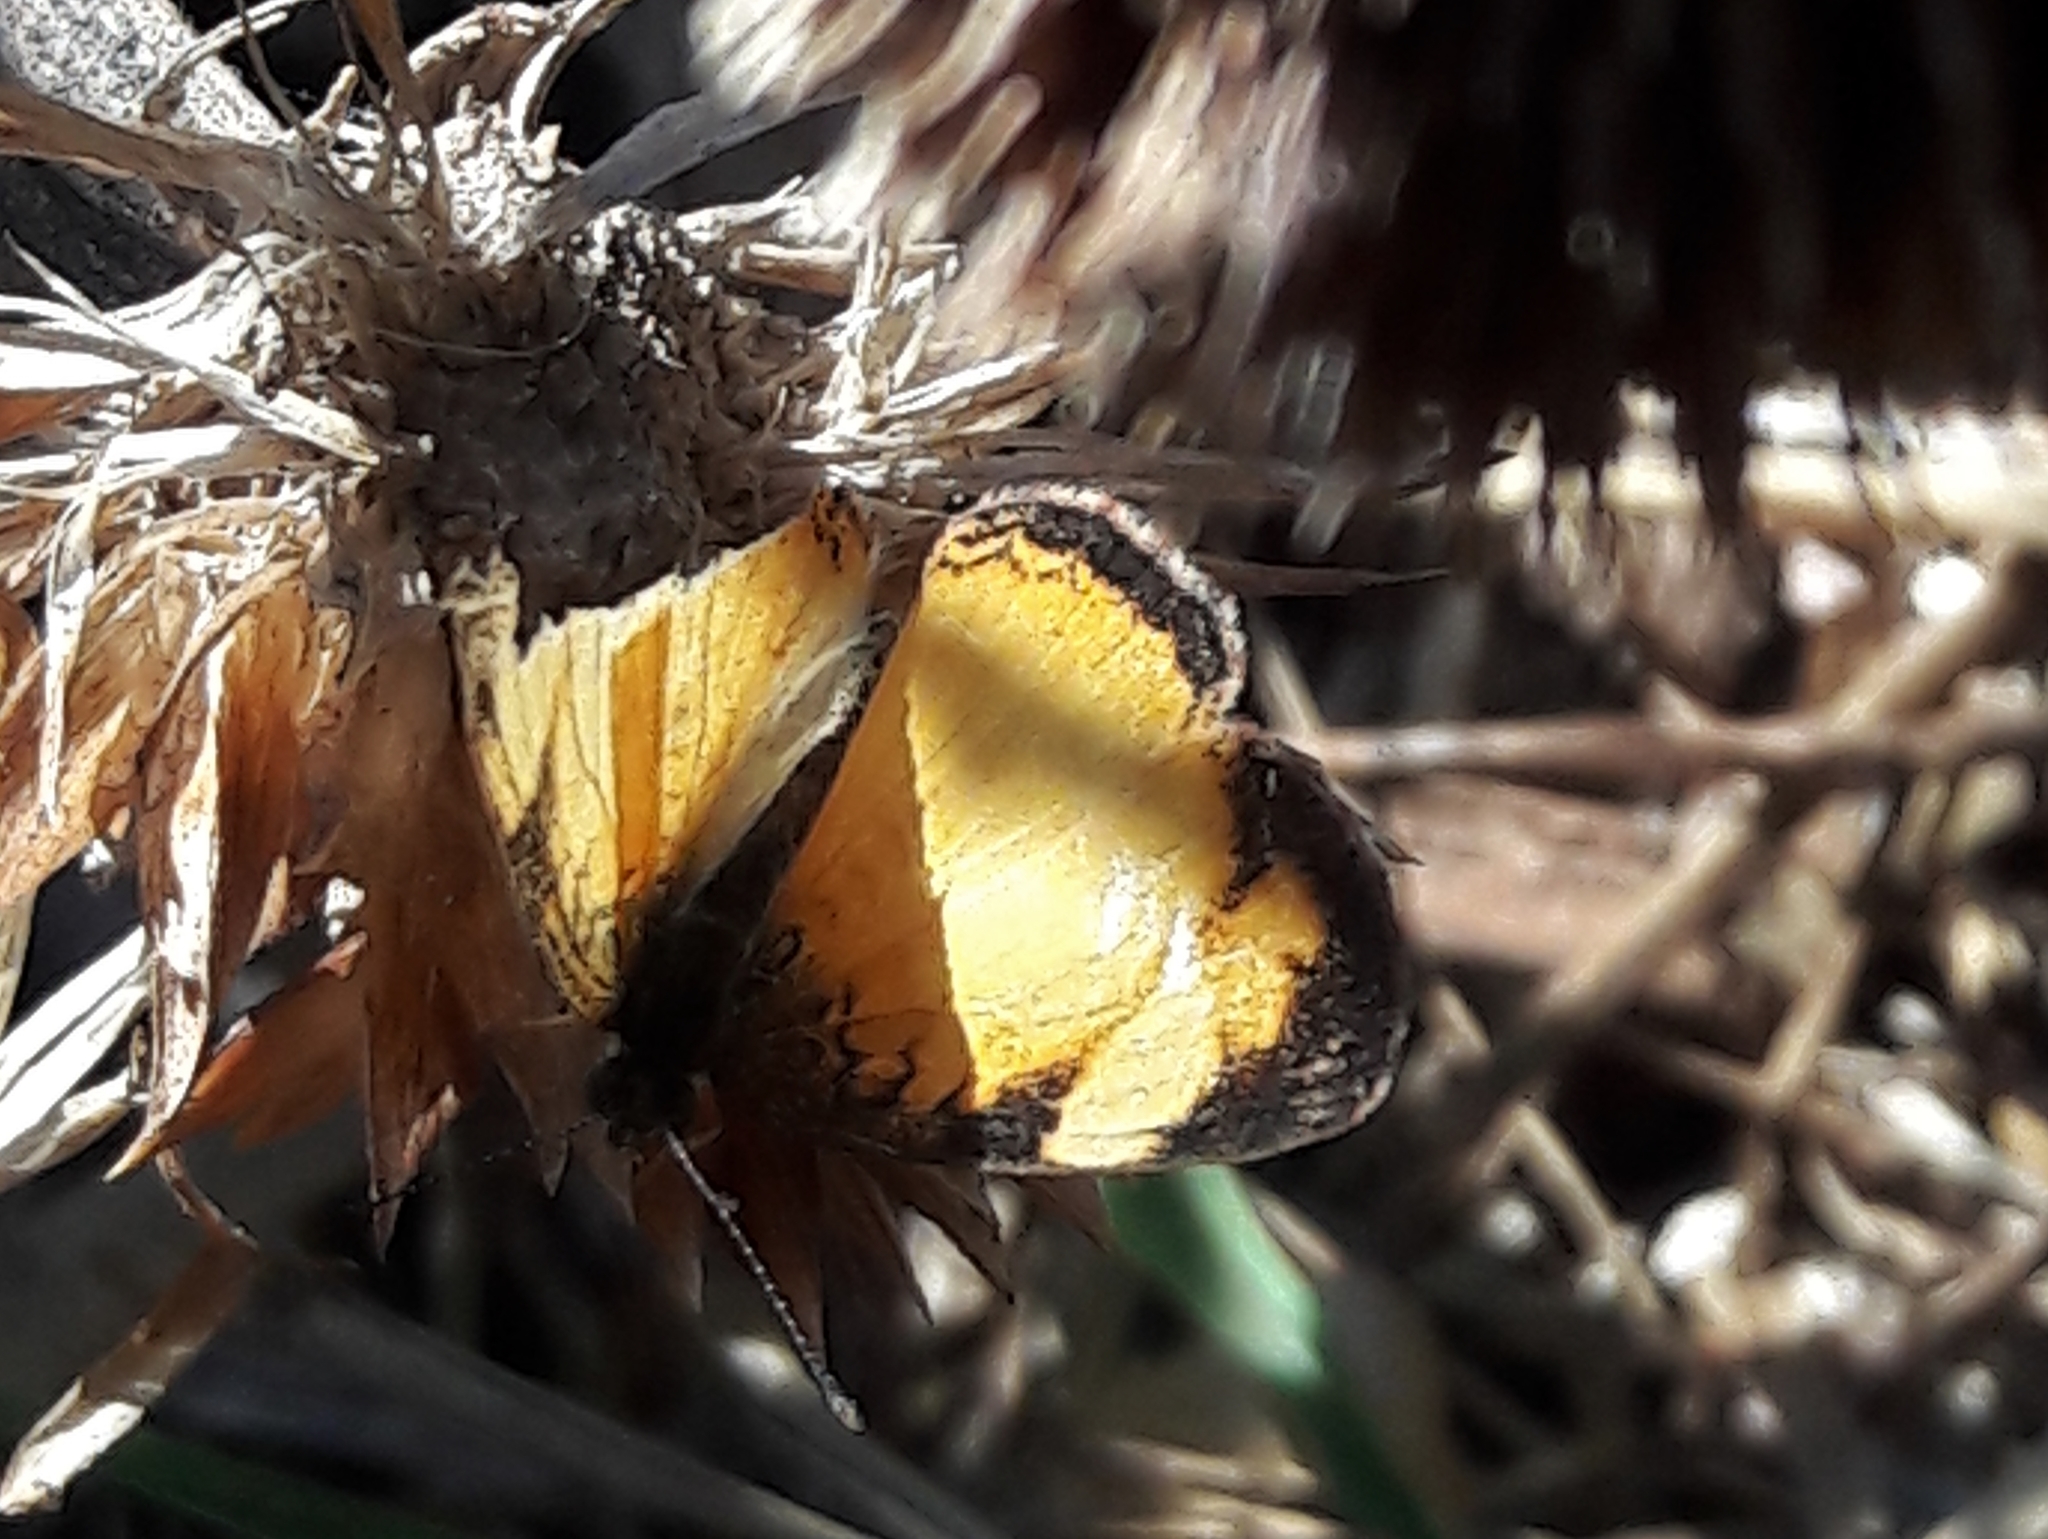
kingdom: Animalia
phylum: Arthropoda
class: Insecta
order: Lepidoptera
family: Nymphalidae
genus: Tegosa
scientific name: Tegosa claudina
